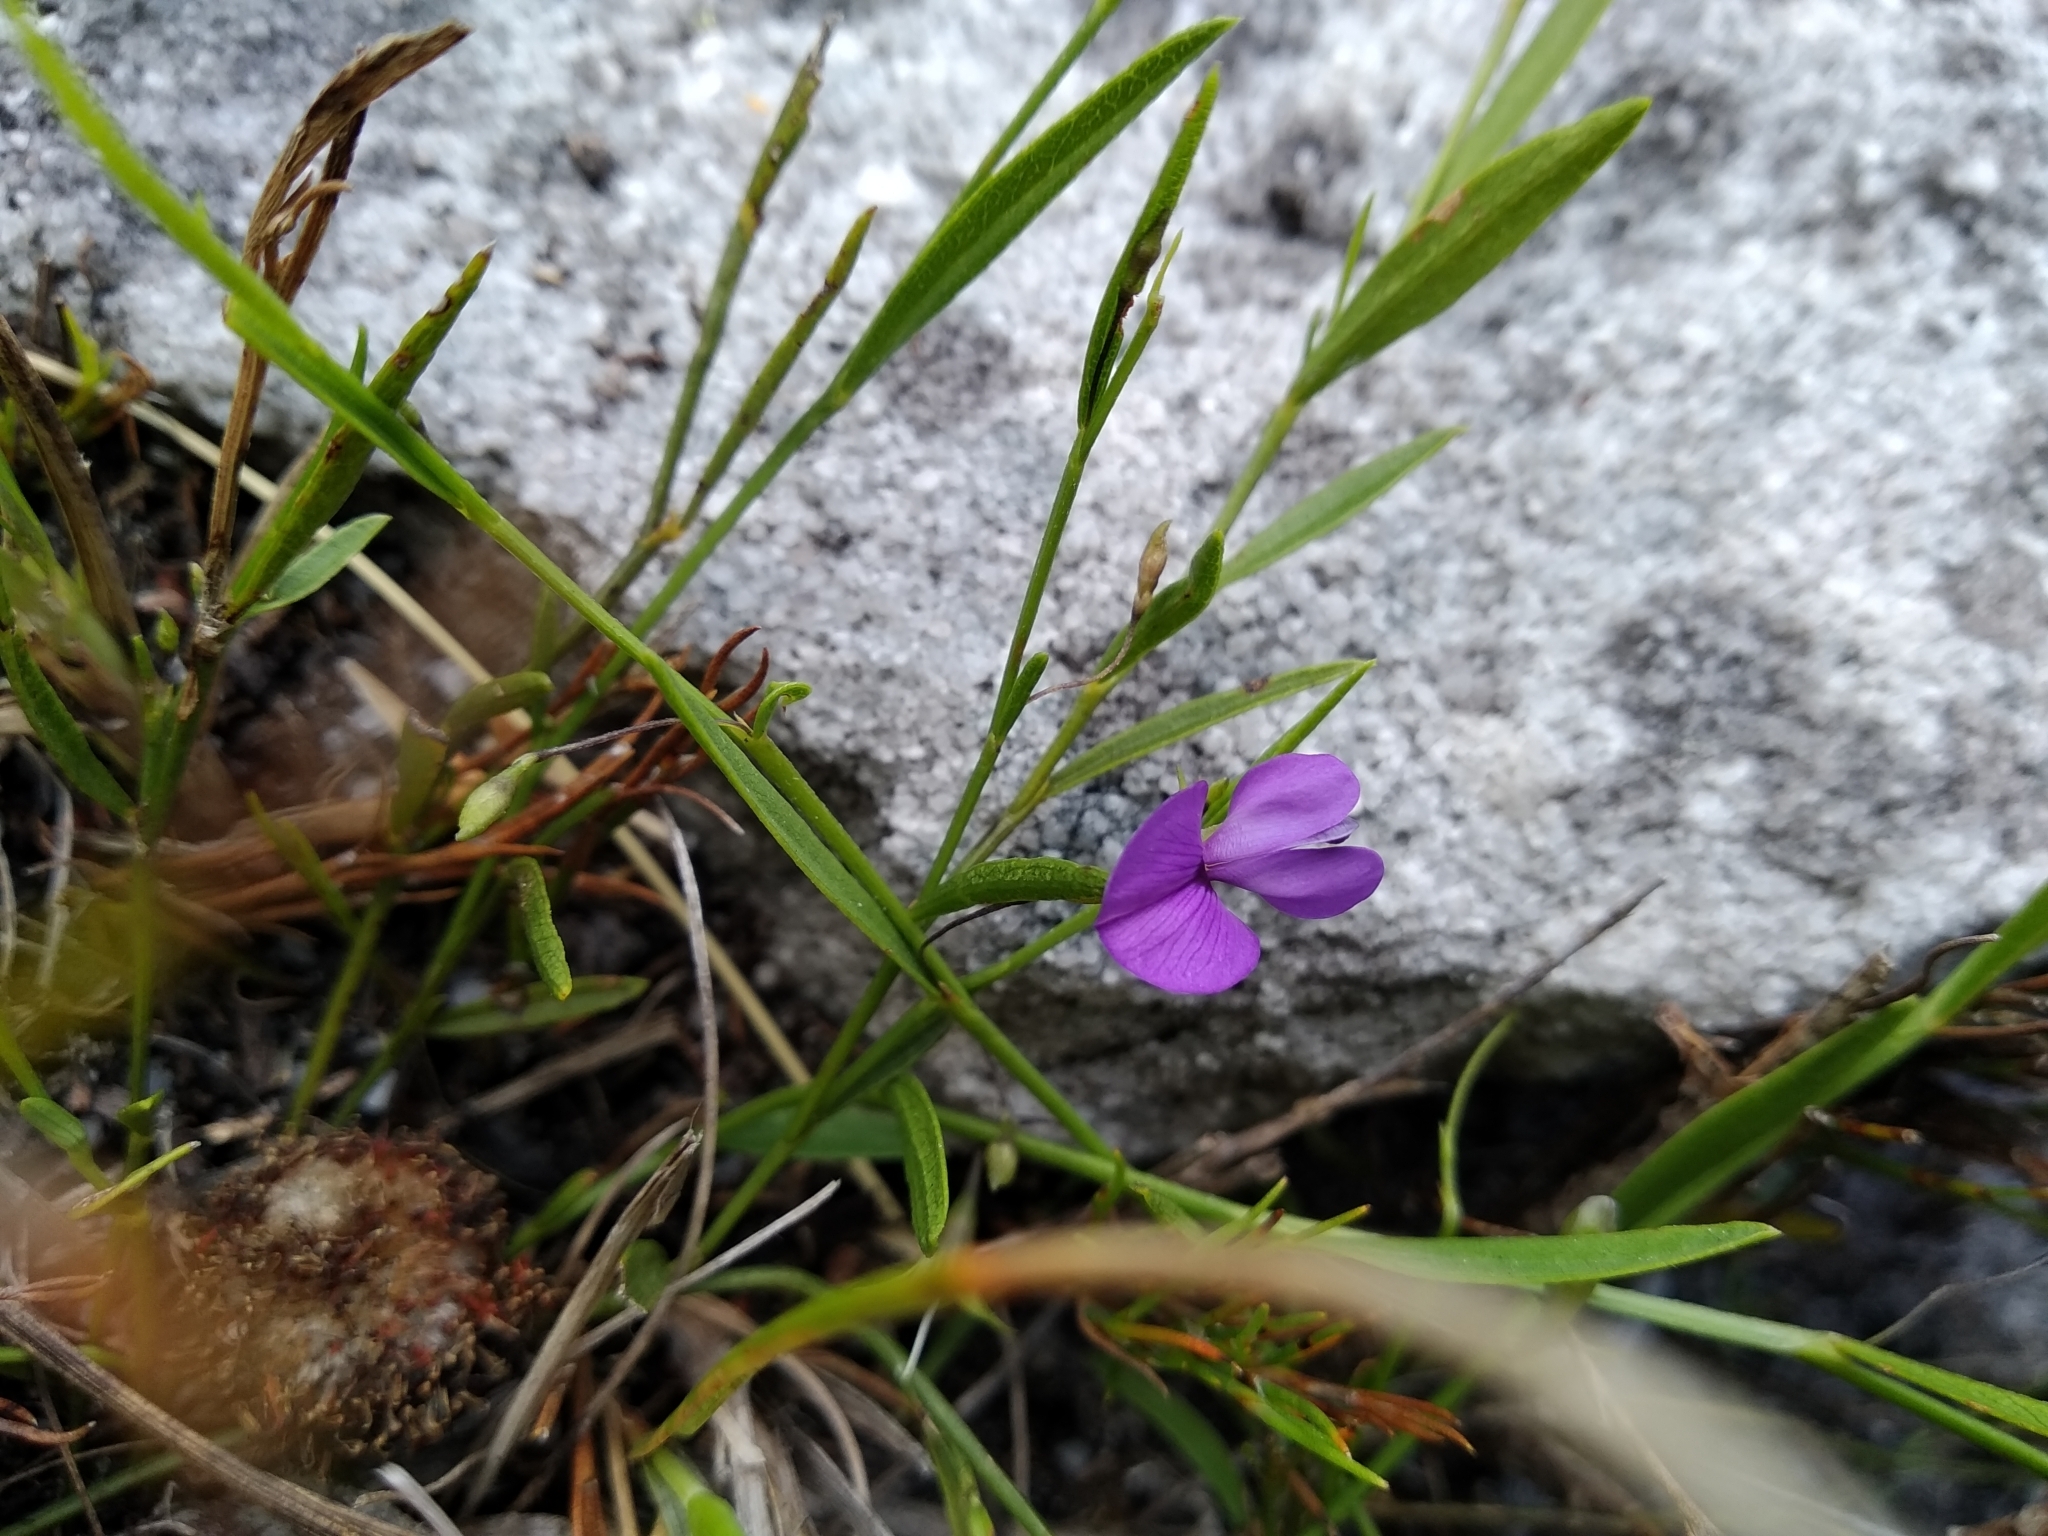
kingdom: Plantae
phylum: Tracheophyta
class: Magnoliopsida
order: Fabales
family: Fabaceae
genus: Psoralea
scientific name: Psoralea laxa
